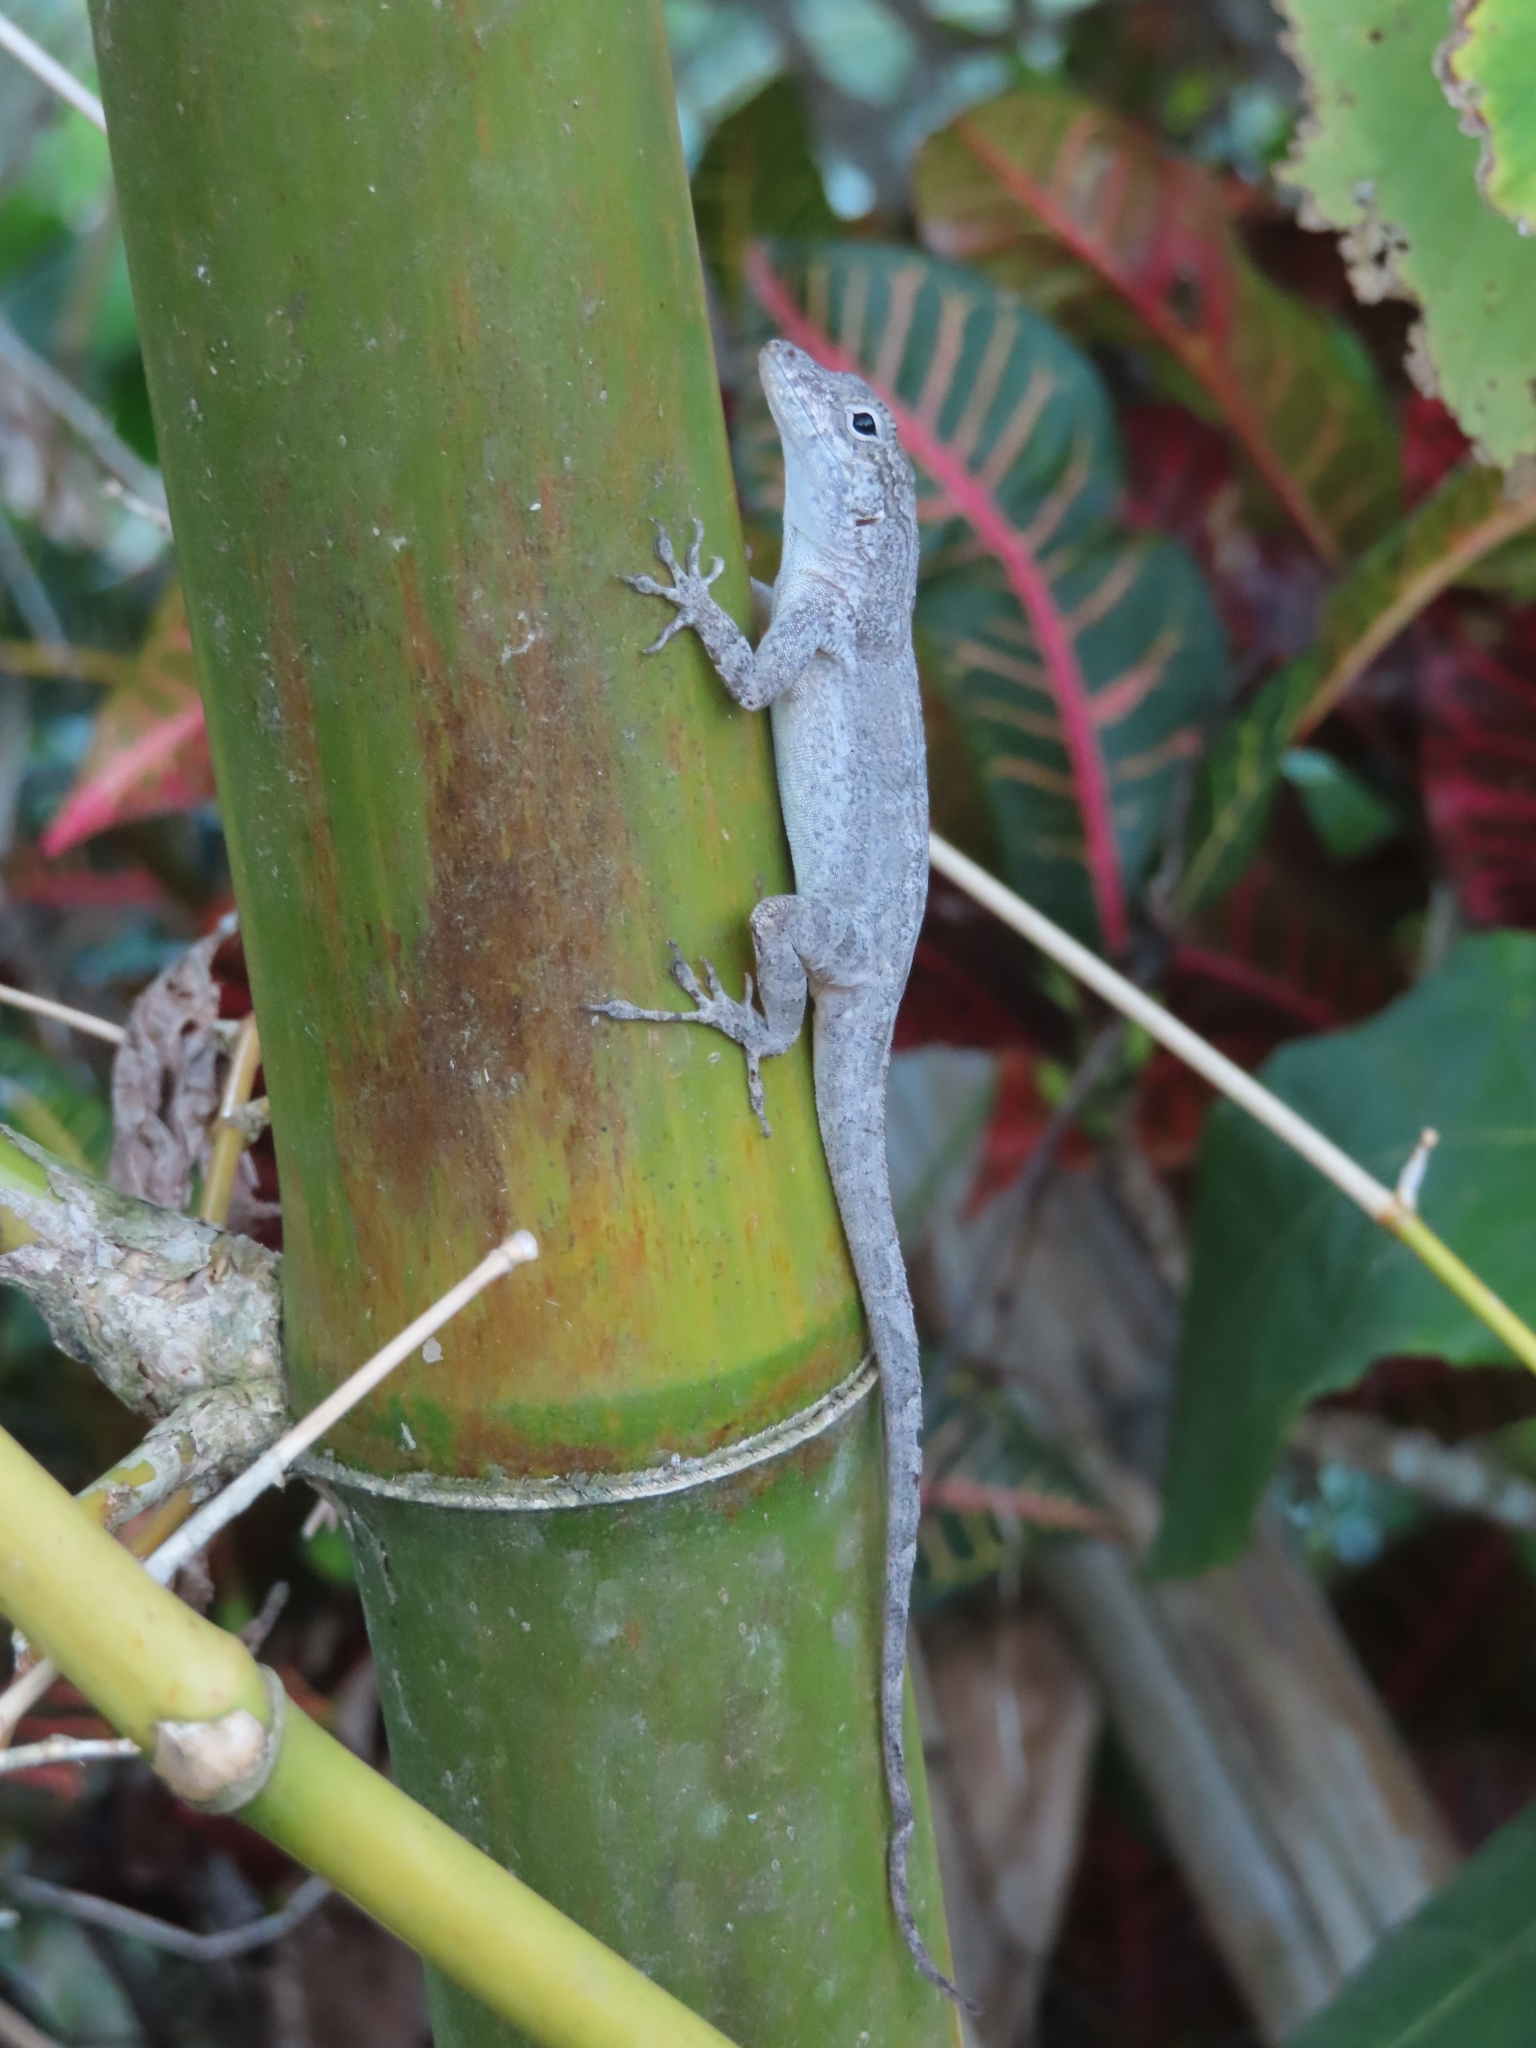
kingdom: Animalia
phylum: Chordata
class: Squamata
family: Dactyloidae
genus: Anolis
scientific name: Anolis cristatellus
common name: Crested anole
